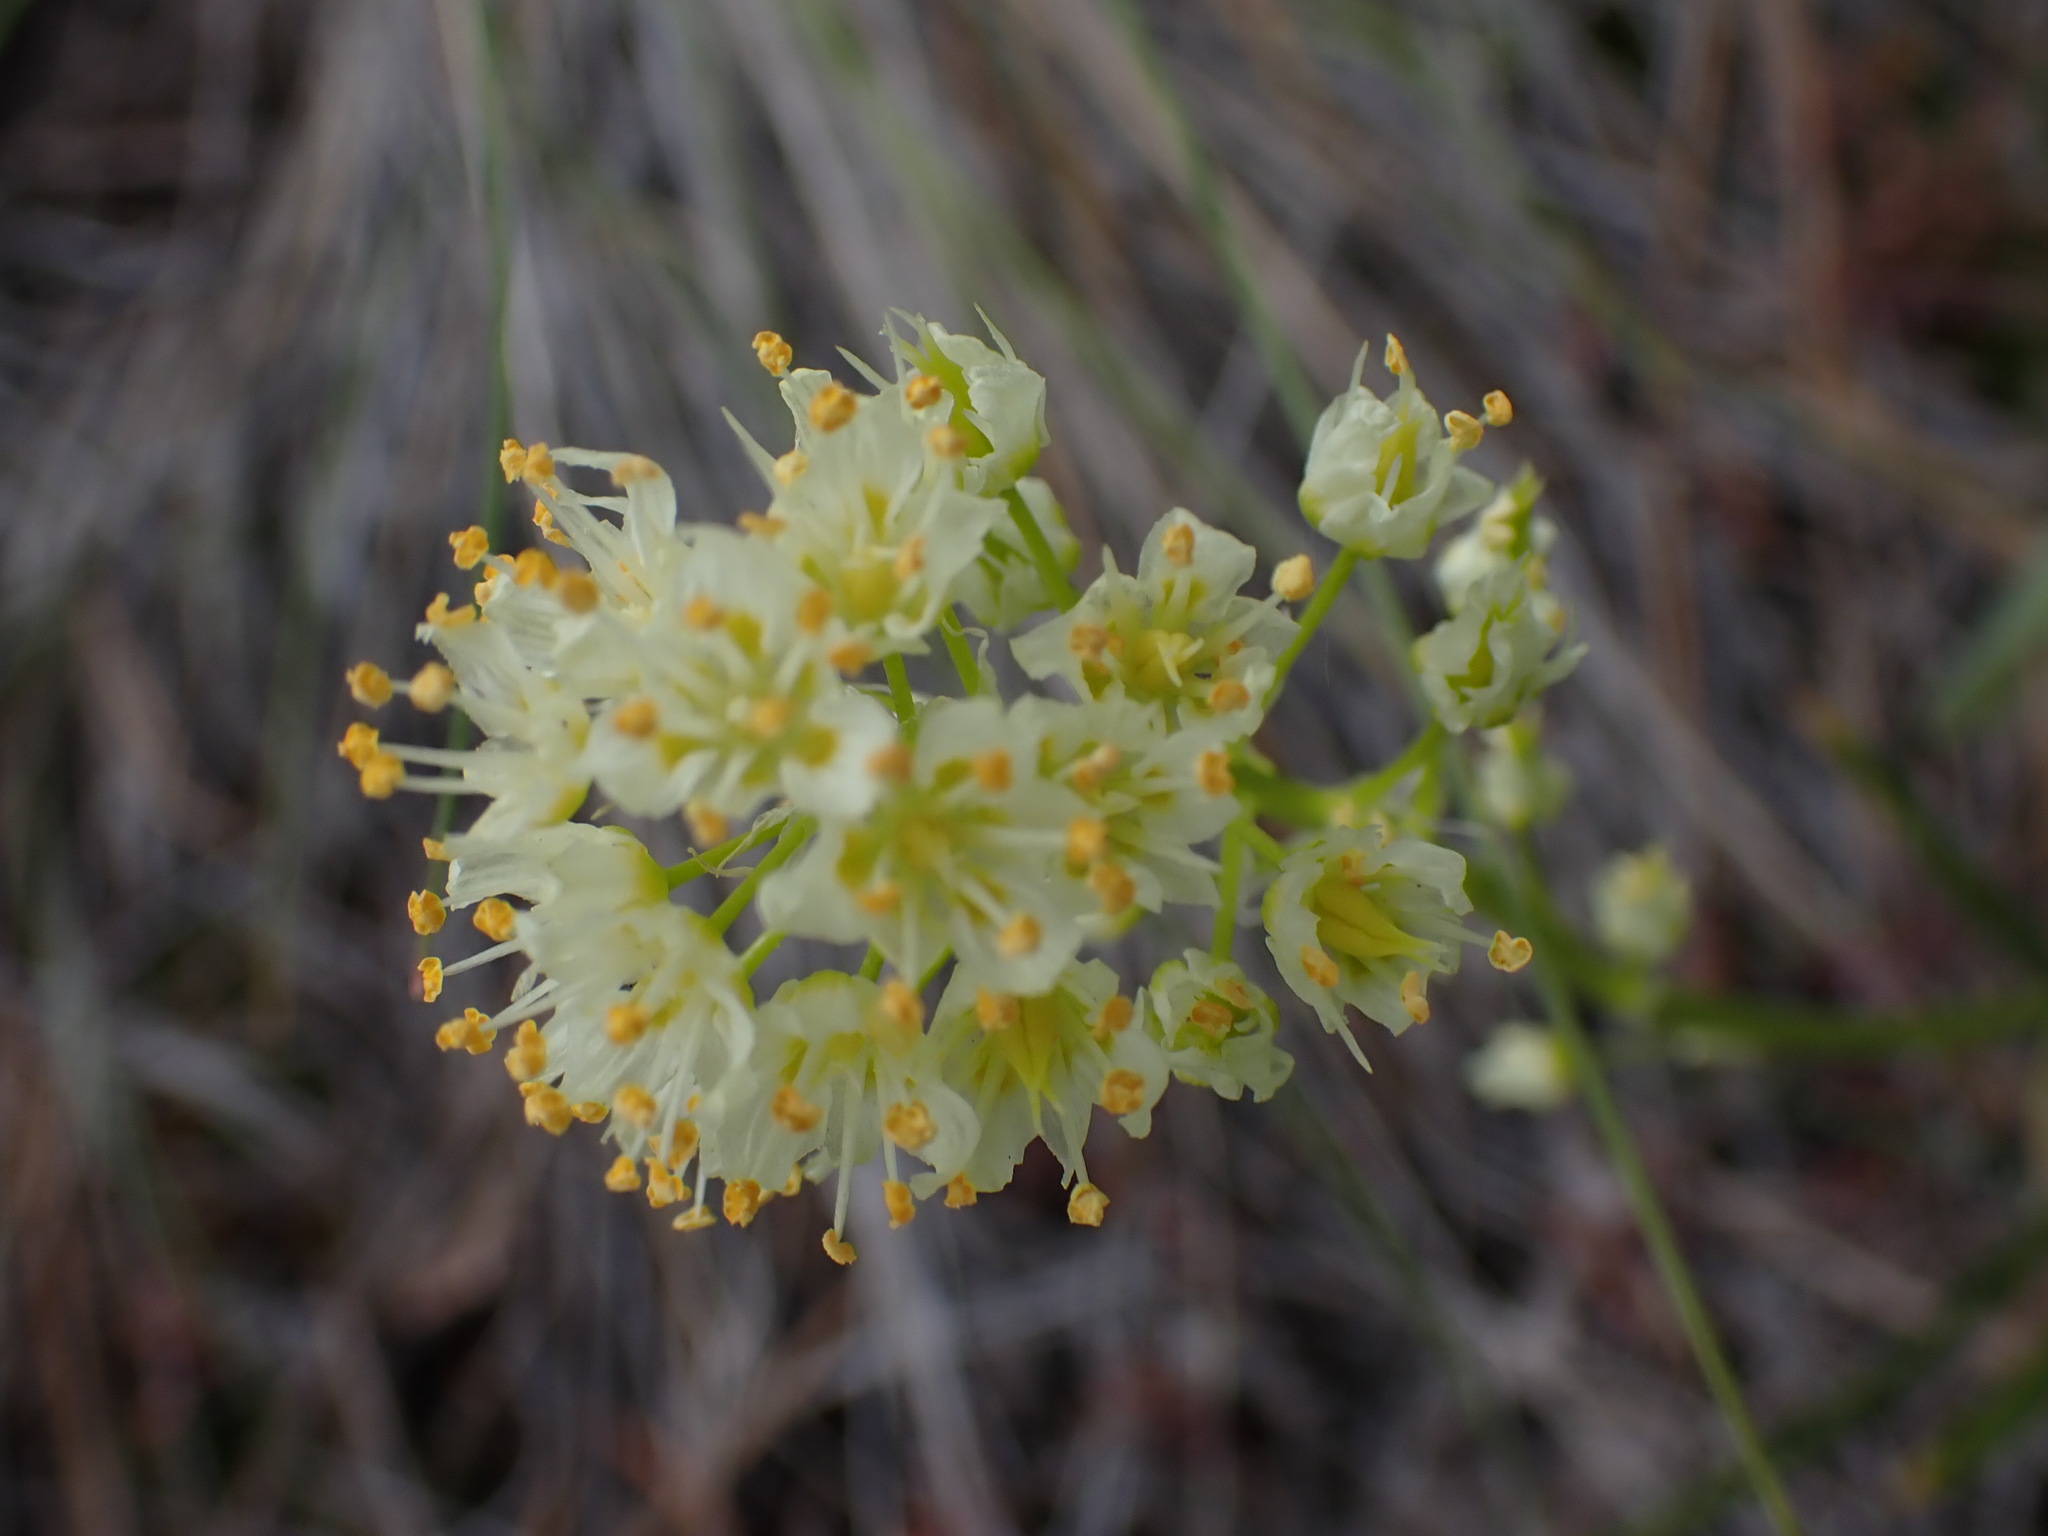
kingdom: Plantae
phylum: Tracheophyta
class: Liliopsida
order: Liliales
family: Melanthiaceae
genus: Toxicoscordion
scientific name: Toxicoscordion venenosum
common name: Meadow death camas
